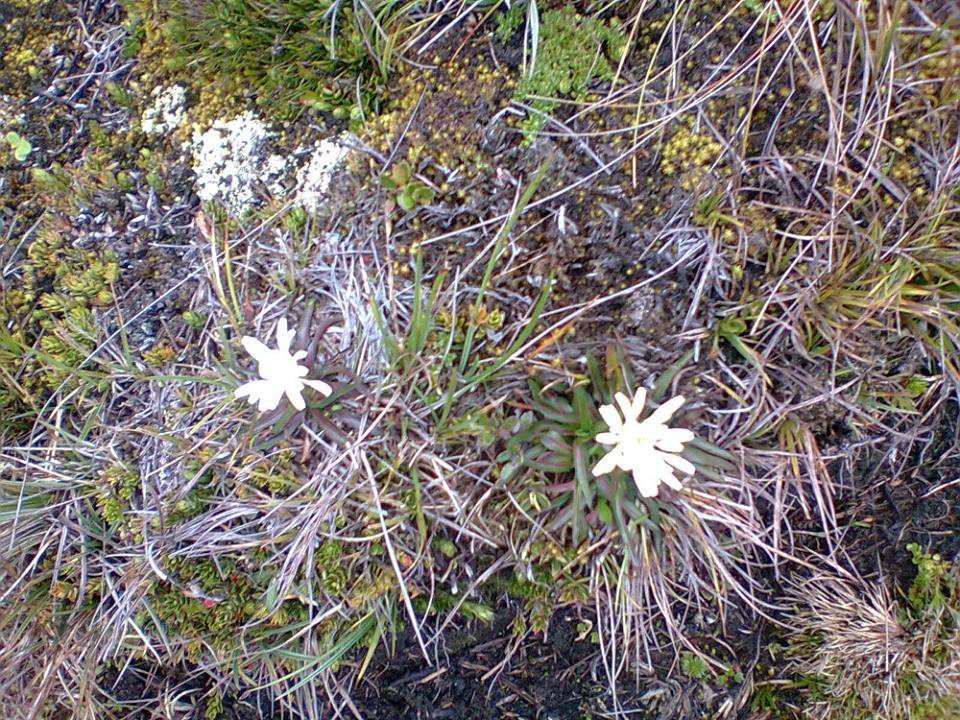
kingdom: Plantae
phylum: Tracheophyta
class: Magnoliopsida
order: Asterales
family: Asteraceae
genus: Hypochaeris
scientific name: Hypochaeris sessiliflora
